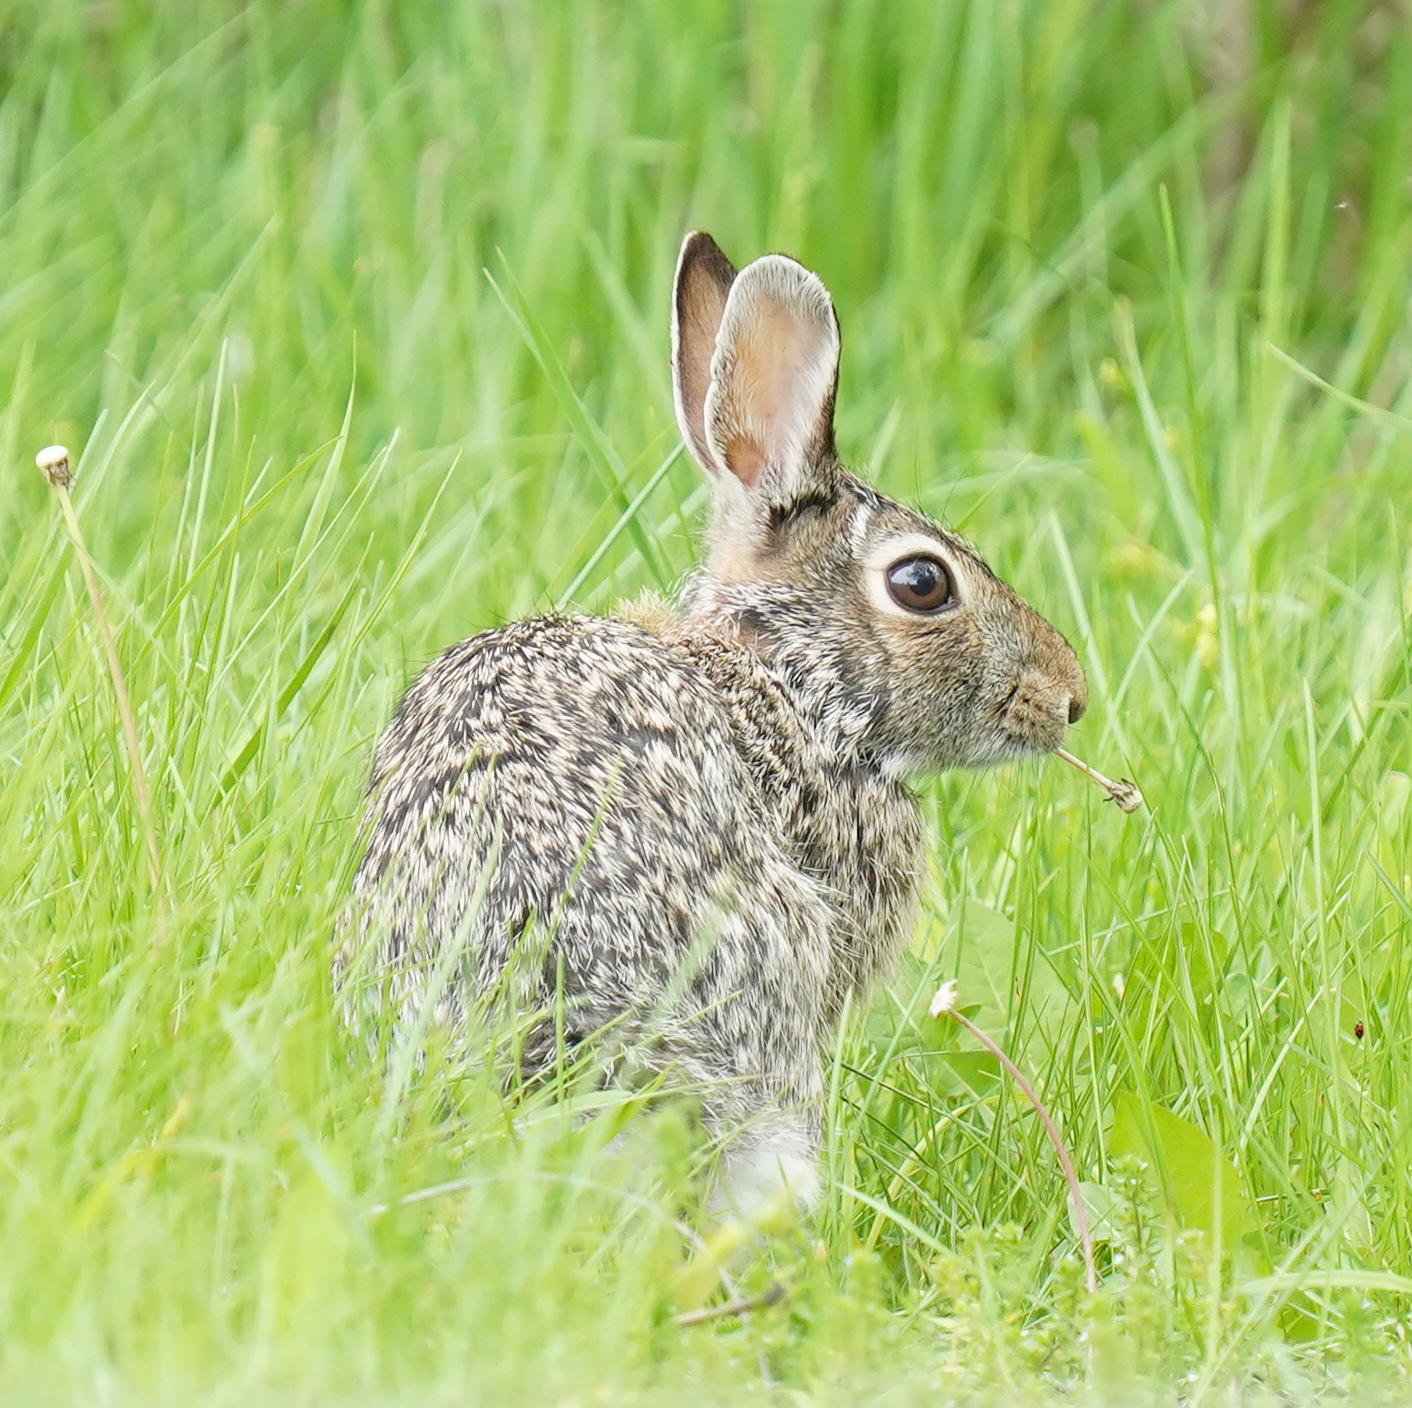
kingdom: Animalia
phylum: Chordata
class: Mammalia
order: Lagomorpha
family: Leporidae
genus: Sylvilagus
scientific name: Sylvilagus floridanus
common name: Eastern cottontail
